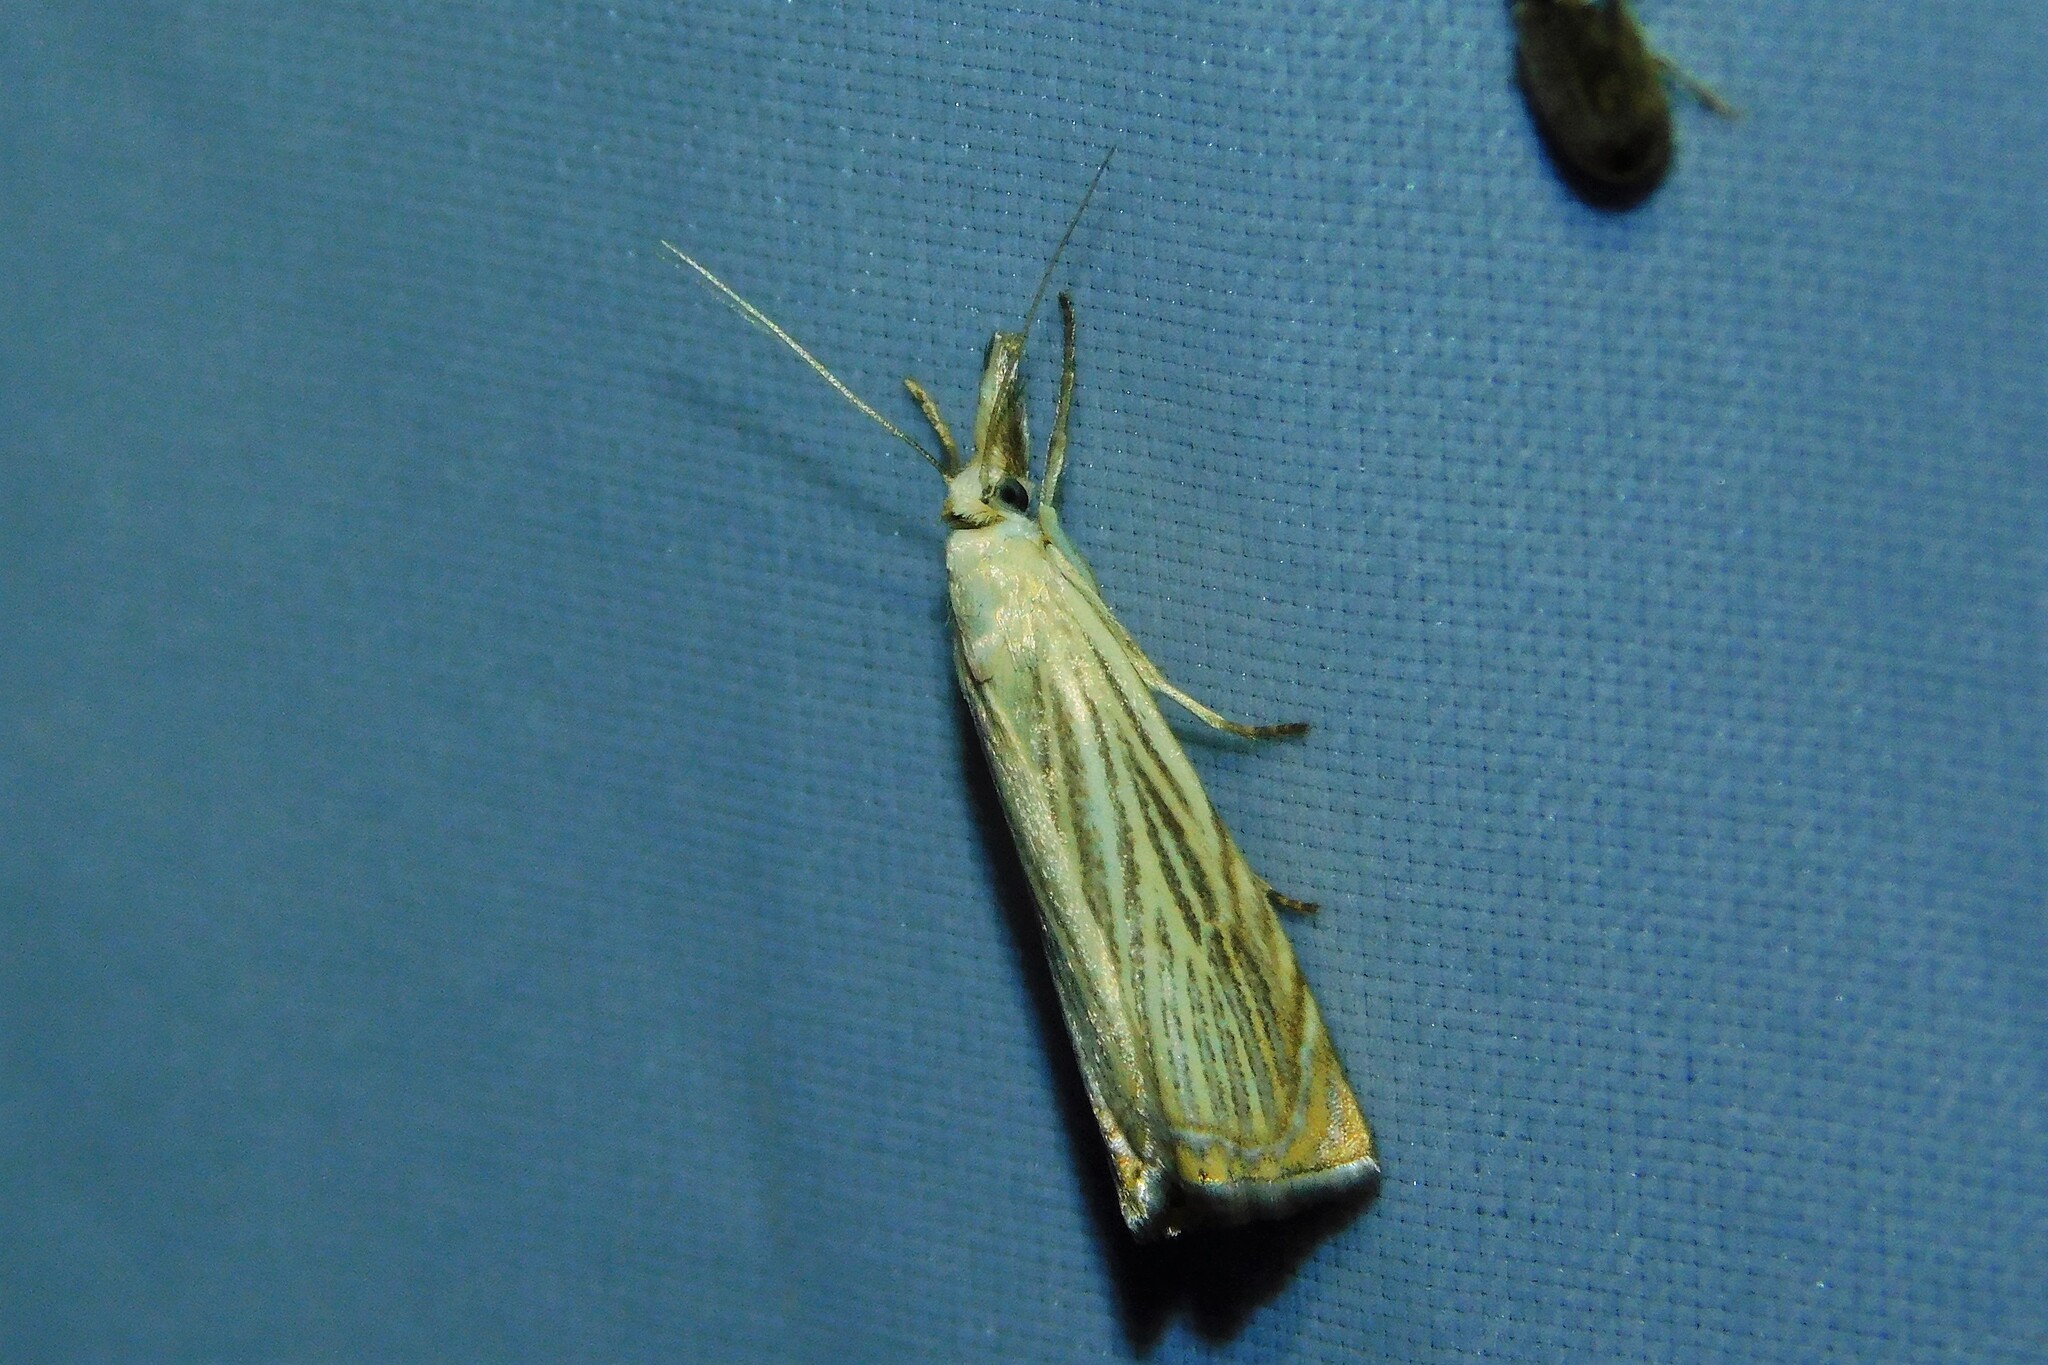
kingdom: Animalia
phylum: Arthropoda
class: Insecta
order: Lepidoptera
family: Crambidae
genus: Chrysoteuchia
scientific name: Chrysoteuchia culmella
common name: Garden grass-veneer
